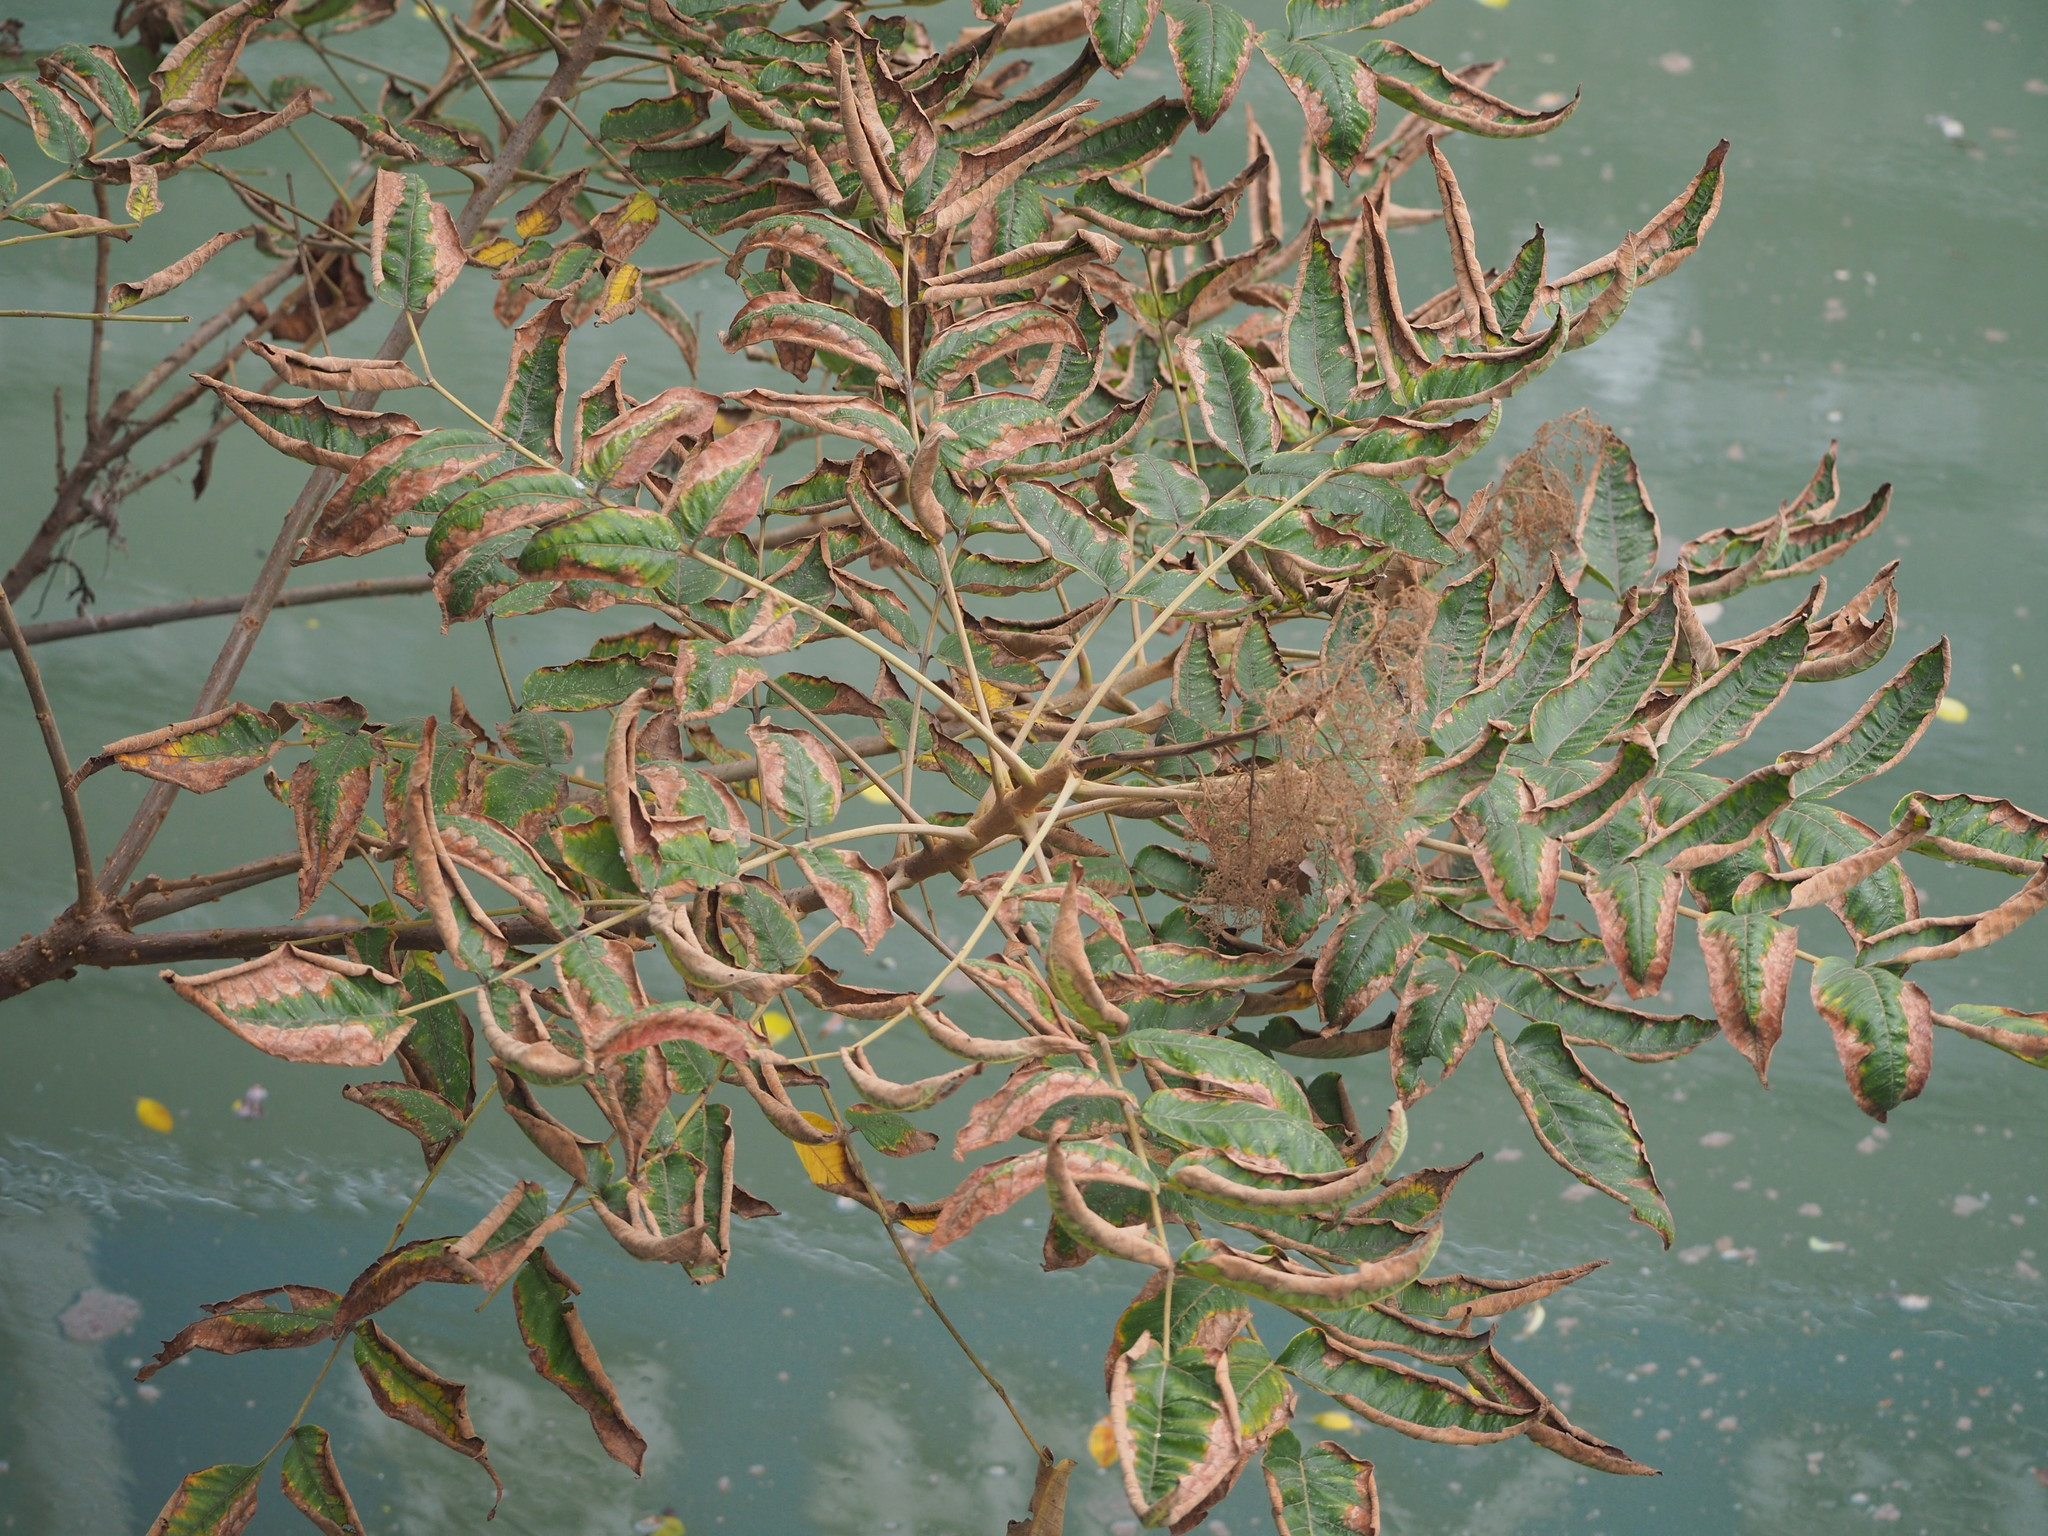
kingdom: Plantae
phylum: Tracheophyta
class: Magnoliopsida
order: Sapindales
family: Anacardiaceae
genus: Rhus
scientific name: Rhus chinensis
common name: Chinese gall
